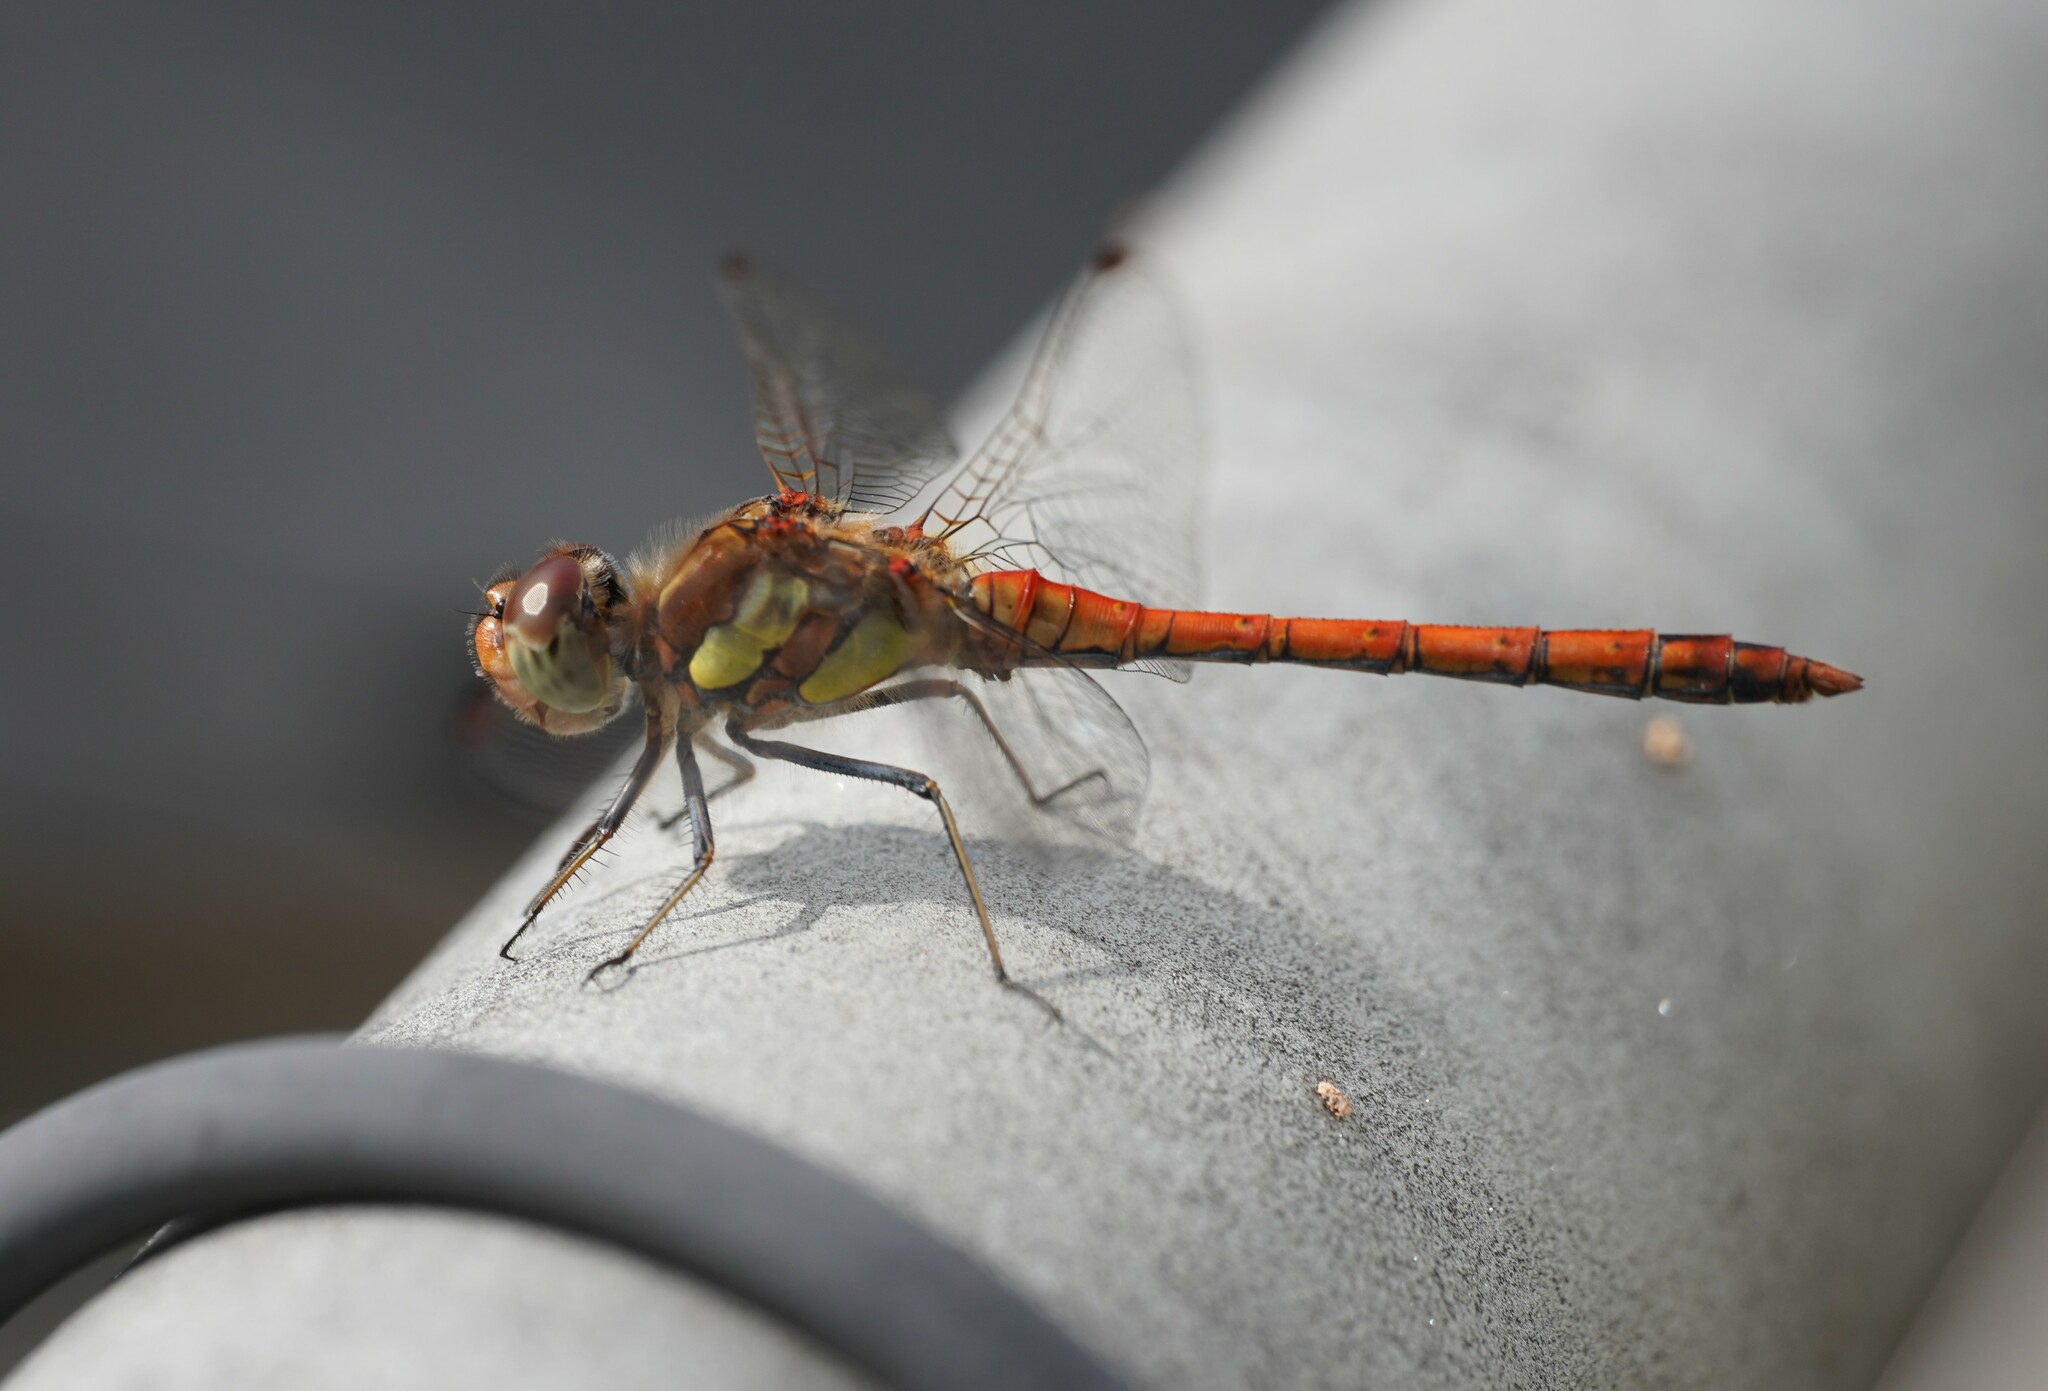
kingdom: Animalia
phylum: Arthropoda
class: Insecta
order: Odonata
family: Libellulidae
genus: Sympetrum
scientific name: Sympetrum striolatum
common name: Common darter
